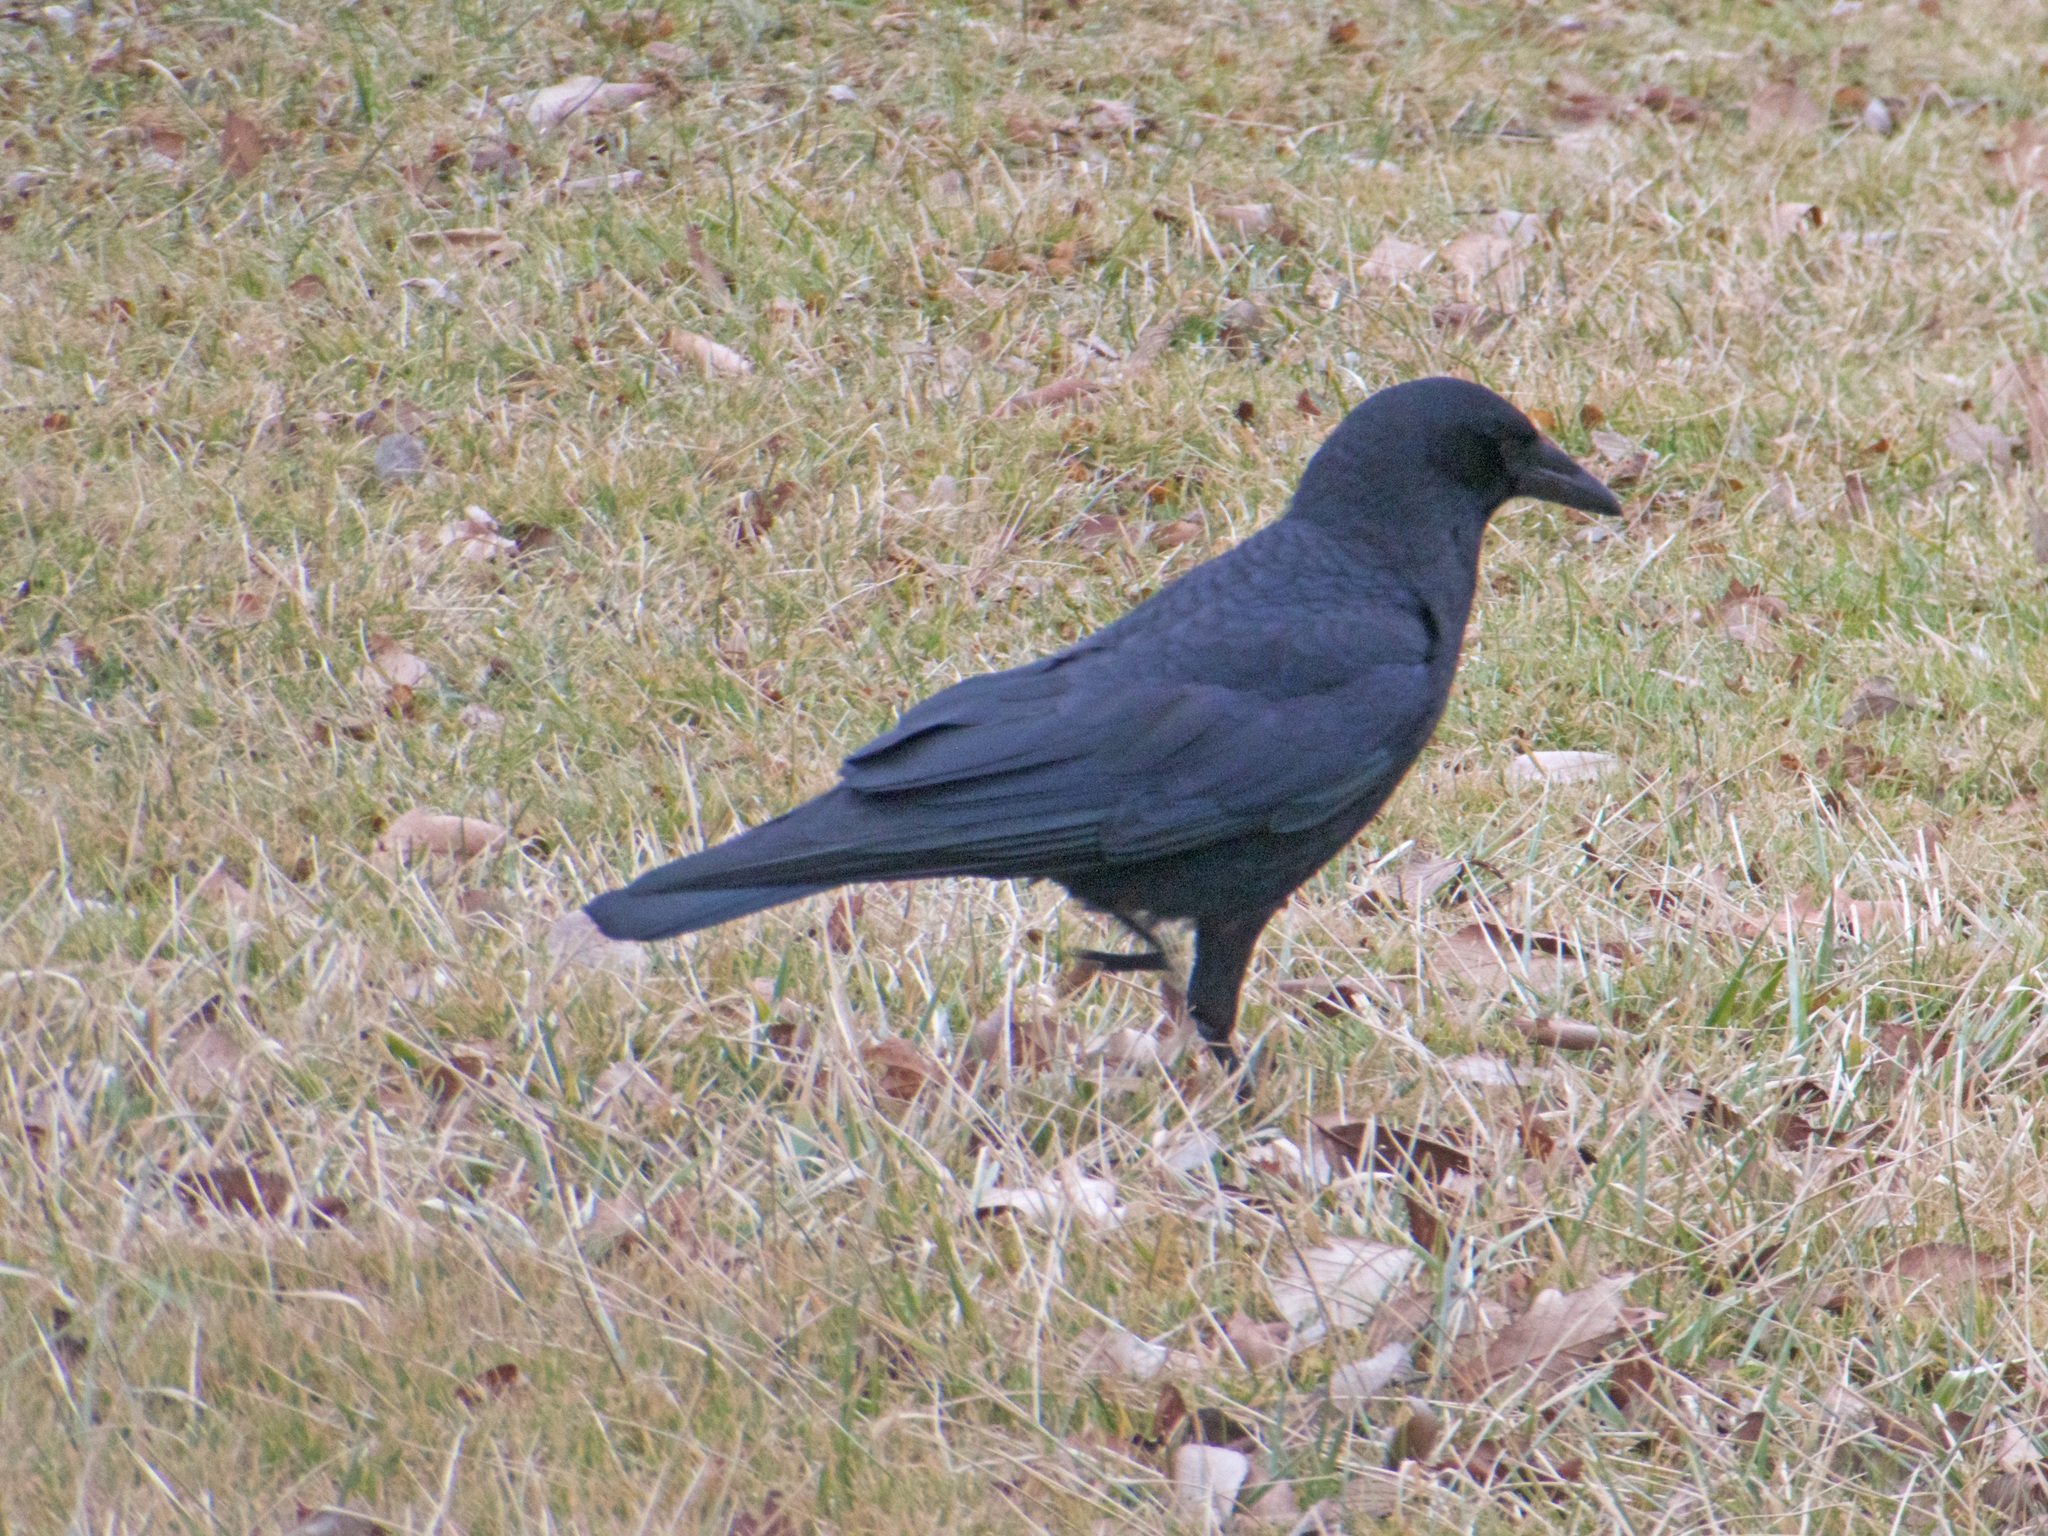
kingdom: Animalia
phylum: Chordata
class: Aves
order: Passeriformes
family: Corvidae
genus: Corvus
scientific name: Corvus brachyrhynchos
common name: American crow
